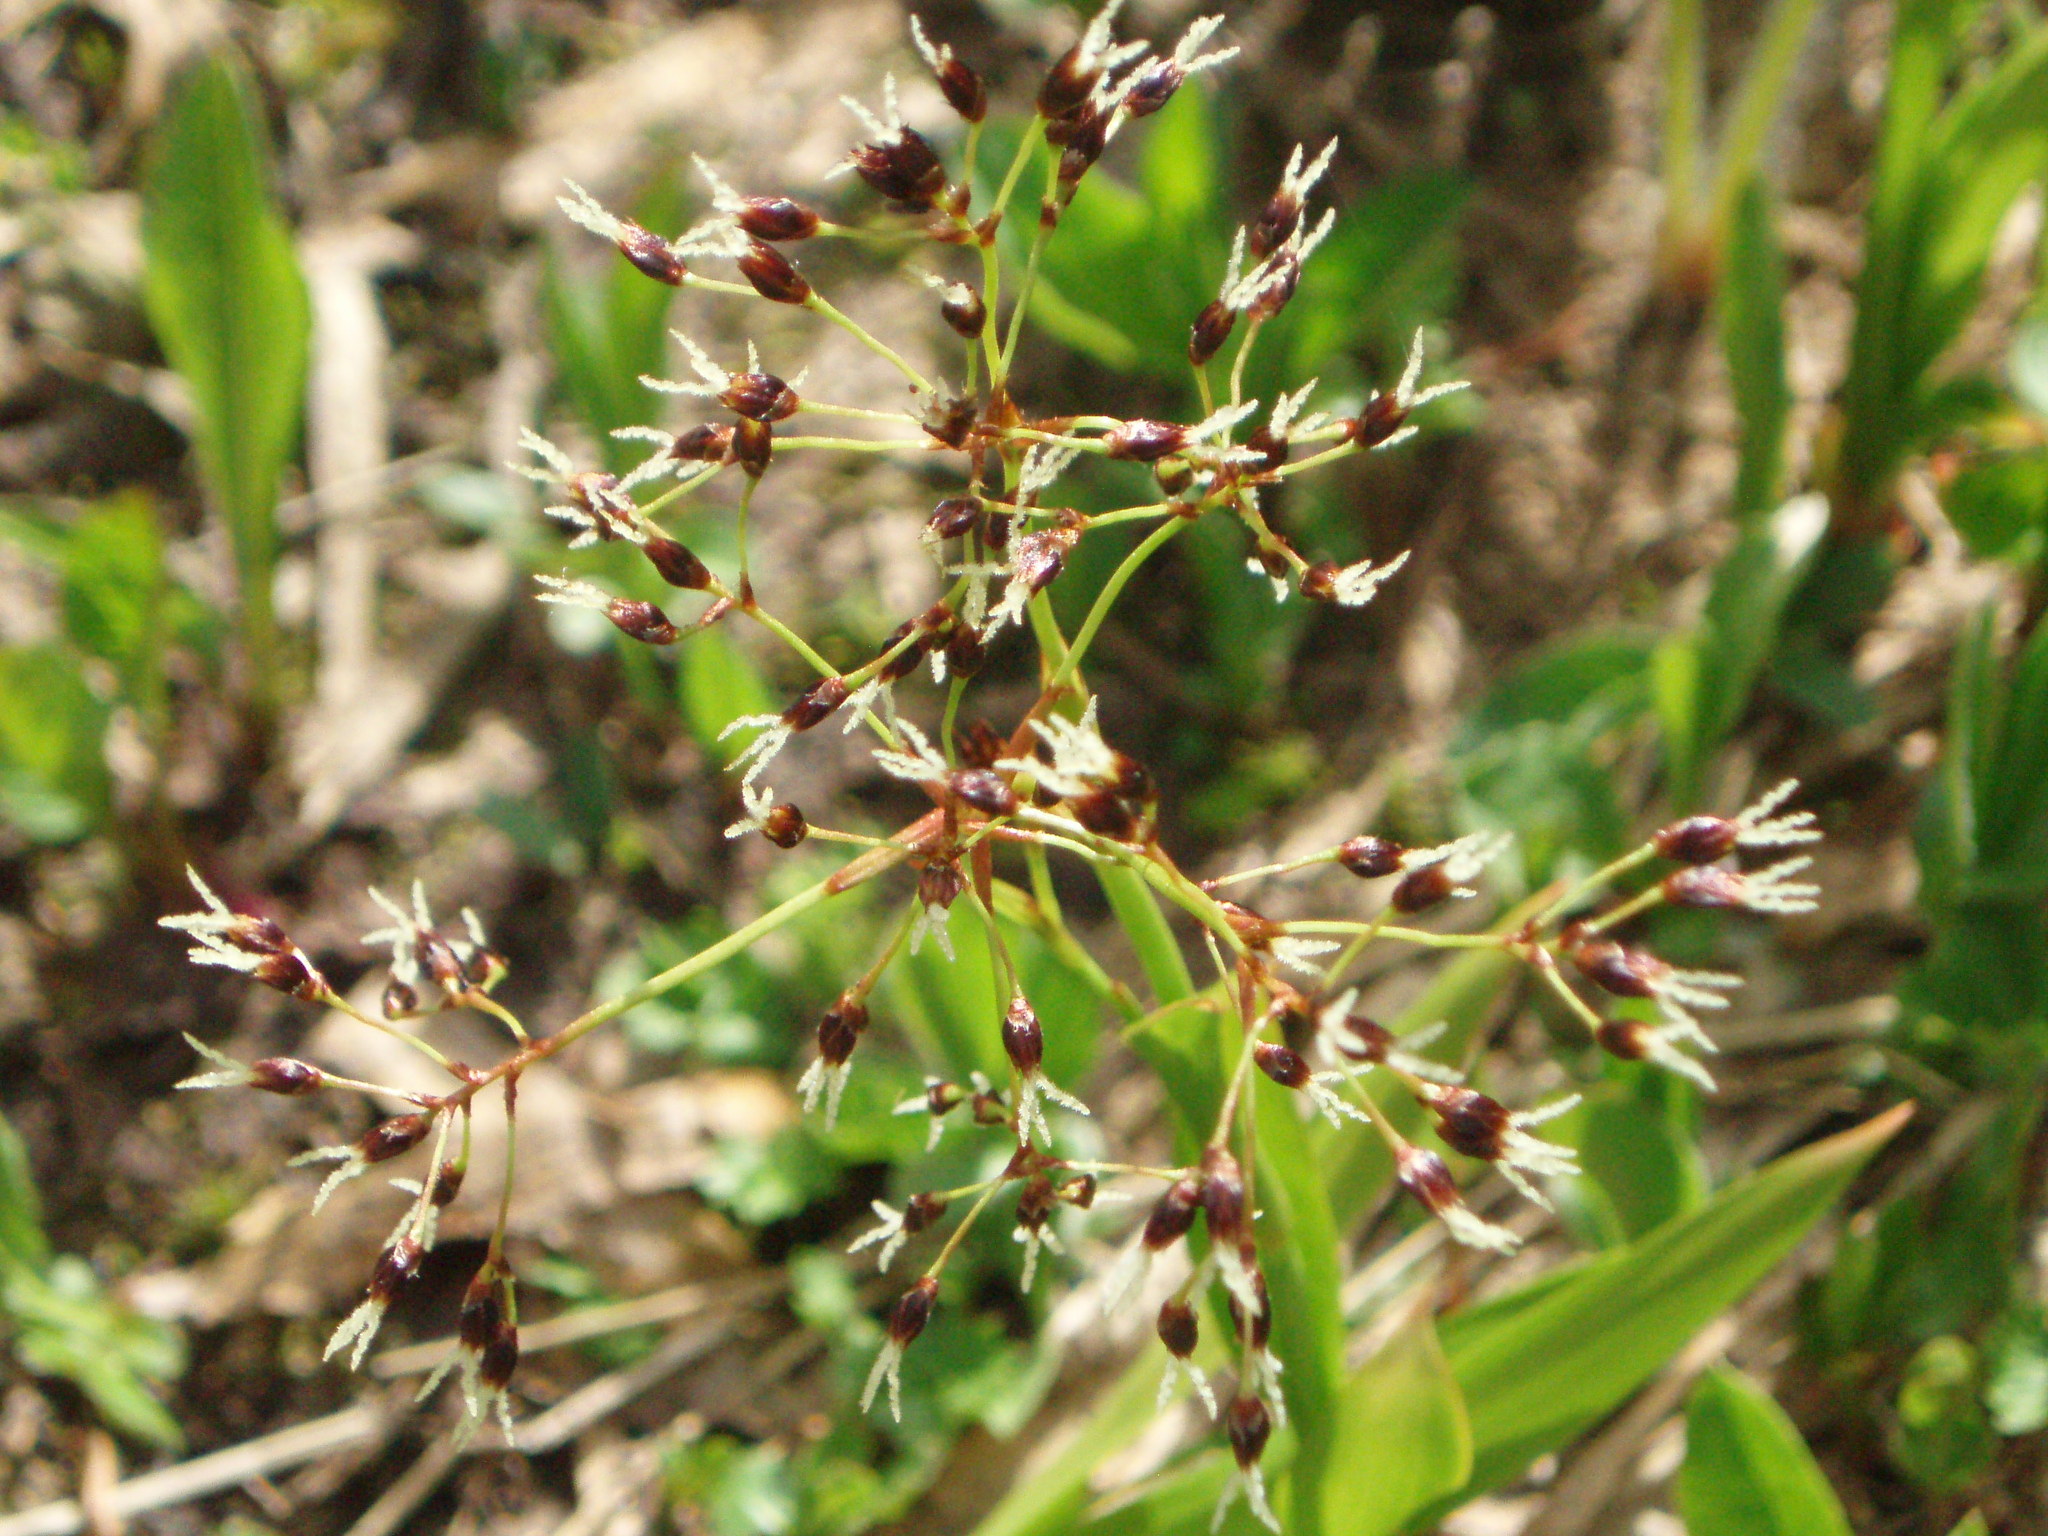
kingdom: Plantae
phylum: Tracheophyta
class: Liliopsida
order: Poales
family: Juncaceae
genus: Luzula
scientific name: Luzula hitchcockii
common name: Hitchcock's smooth woodrush
